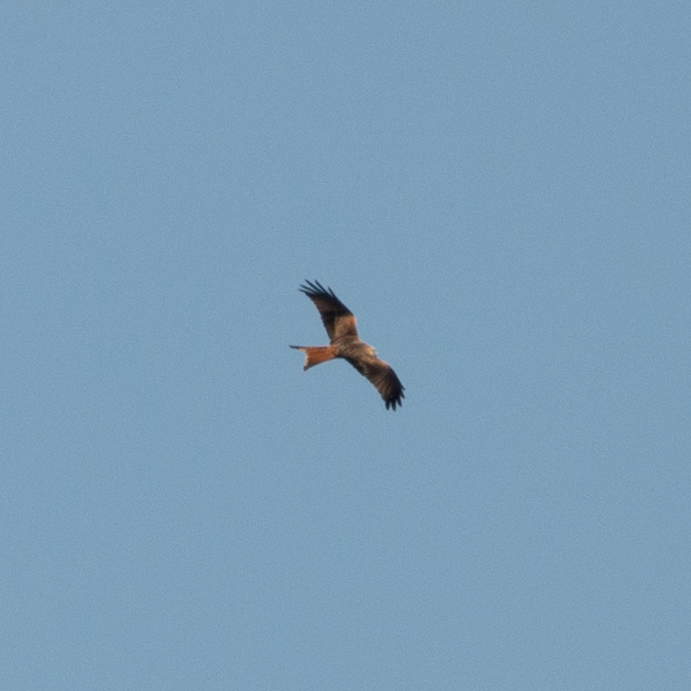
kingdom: Animalia
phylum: Chordata
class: Aves
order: Accipitriformes
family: Accipitridae
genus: Milvus
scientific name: Milvus milvus
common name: Red kite
